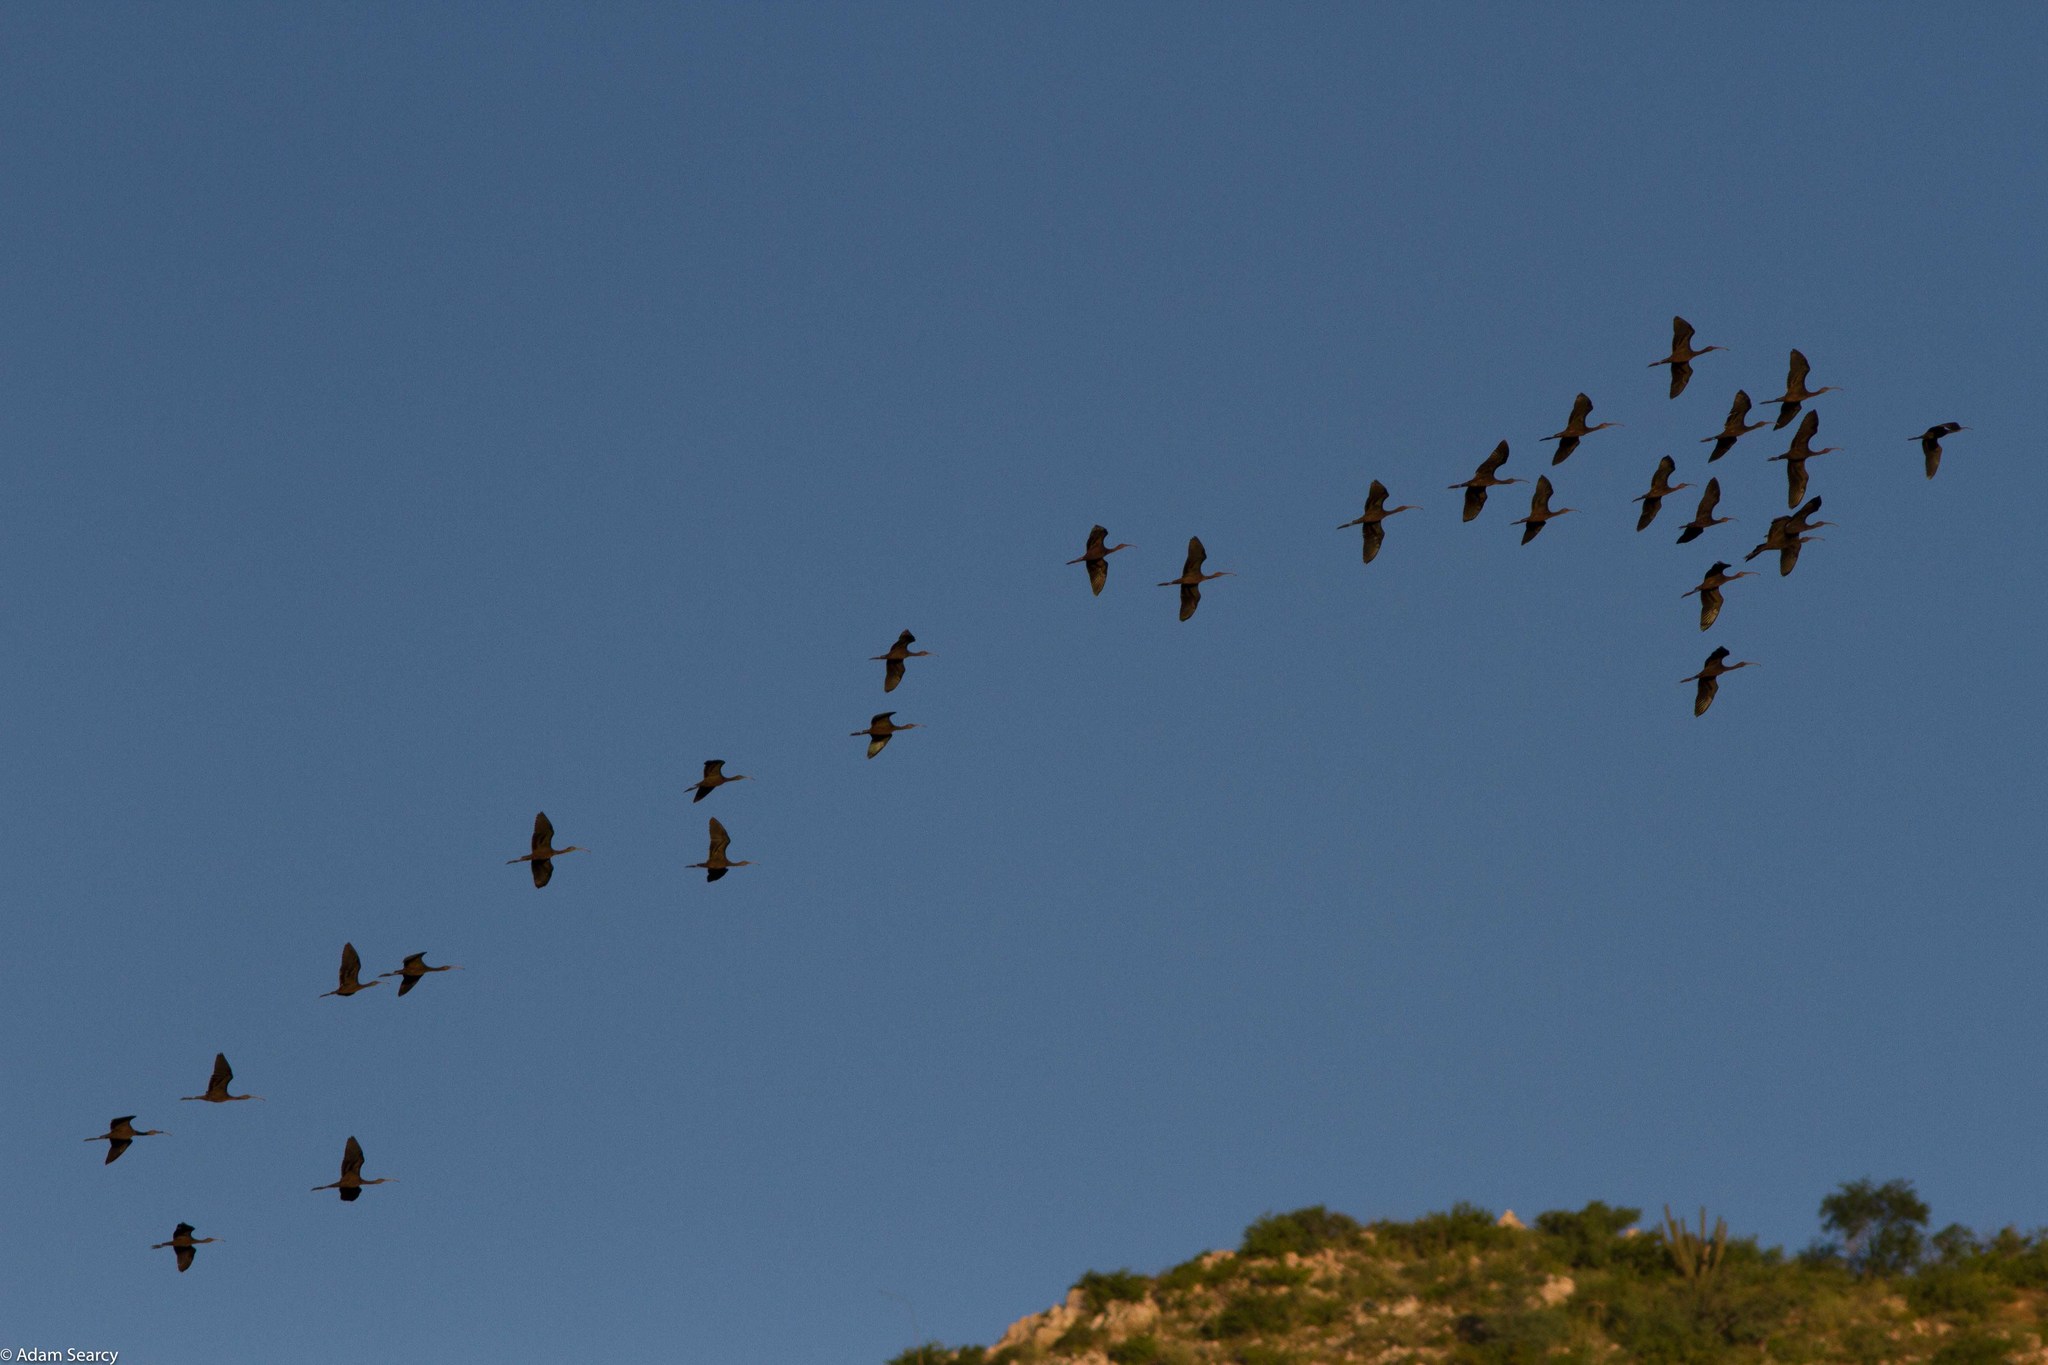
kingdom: Animalia
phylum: Chordata
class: Aves
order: Pelecaniformes
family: Threskiornithidae
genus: Plegadis
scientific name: Plegadis chihi
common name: White-faced ibis
